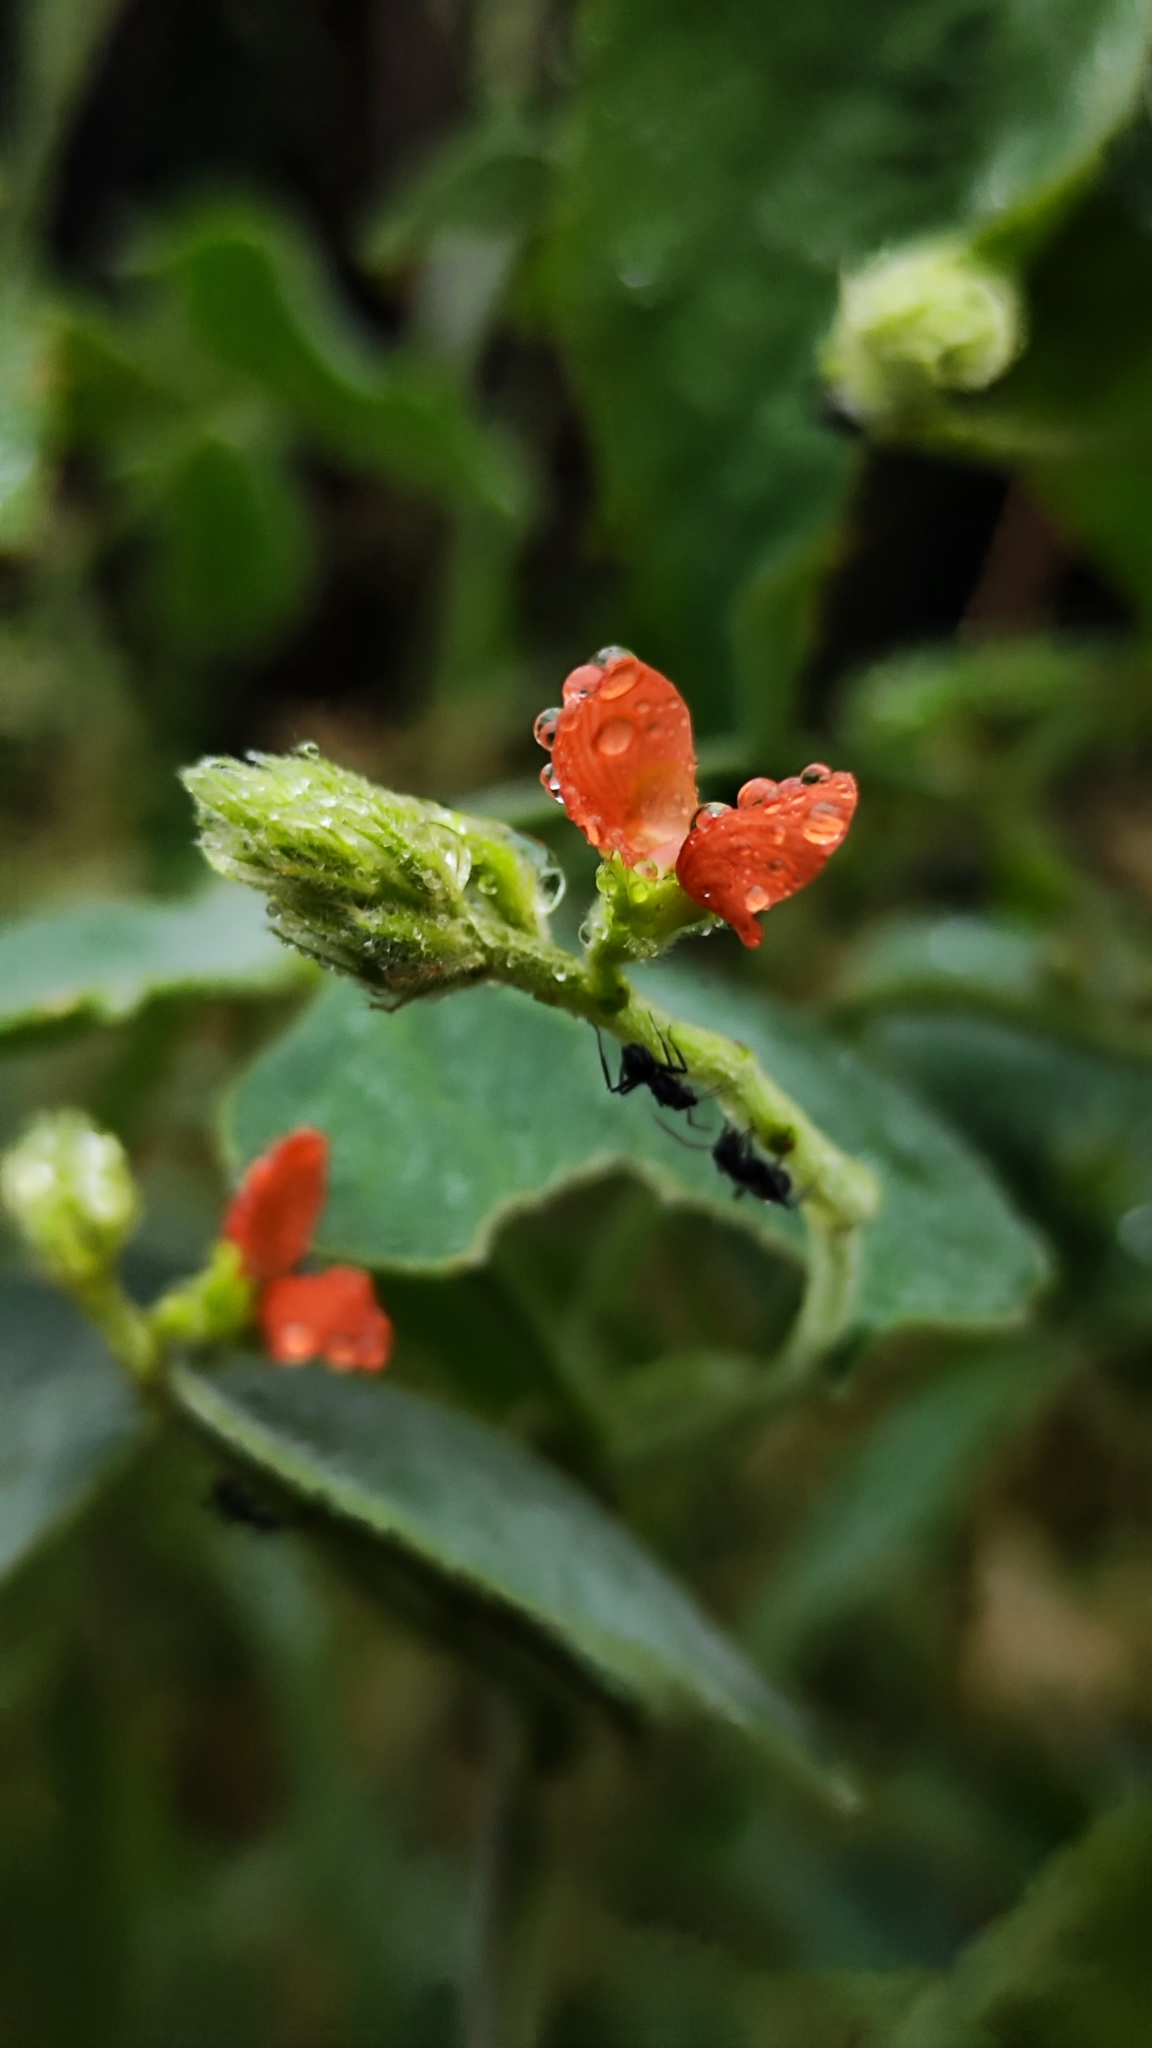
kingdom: Plantae
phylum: Tracheophyta
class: Magnoliopsida
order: Fabales
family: Fabaceae
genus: Macroptilium
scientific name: Macroptilium martii
